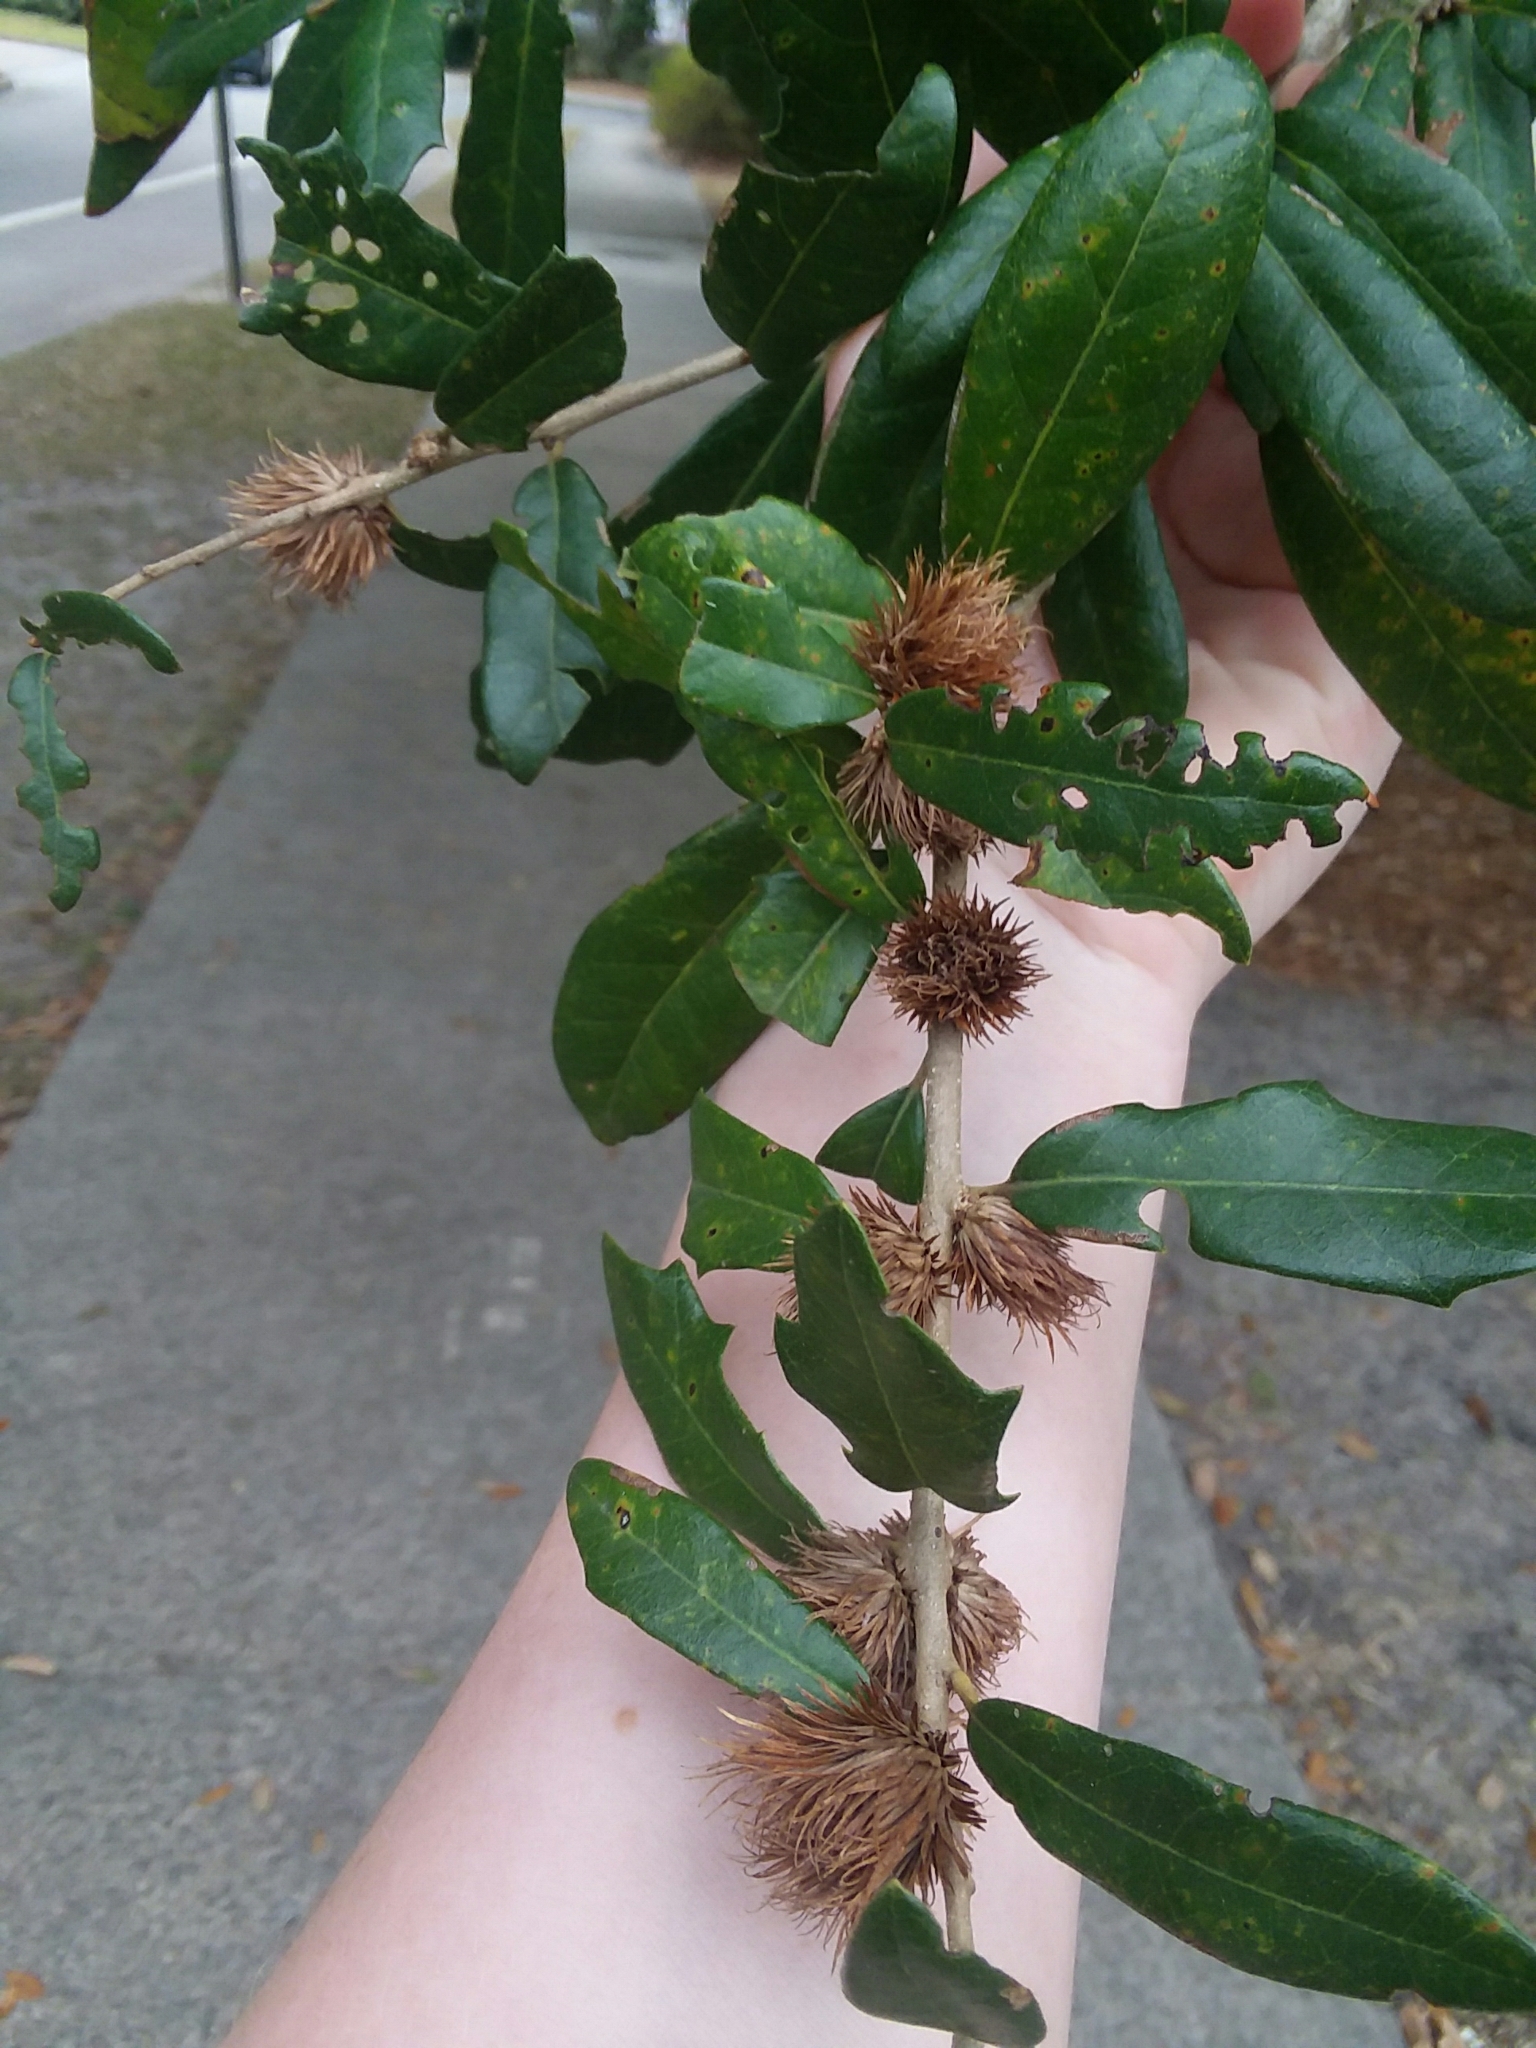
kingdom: Animalia
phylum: Arthropoda
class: Insecta
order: Hymenoptera
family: Cynipidae
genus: Andricus
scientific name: Andricus quercusfoliatus
